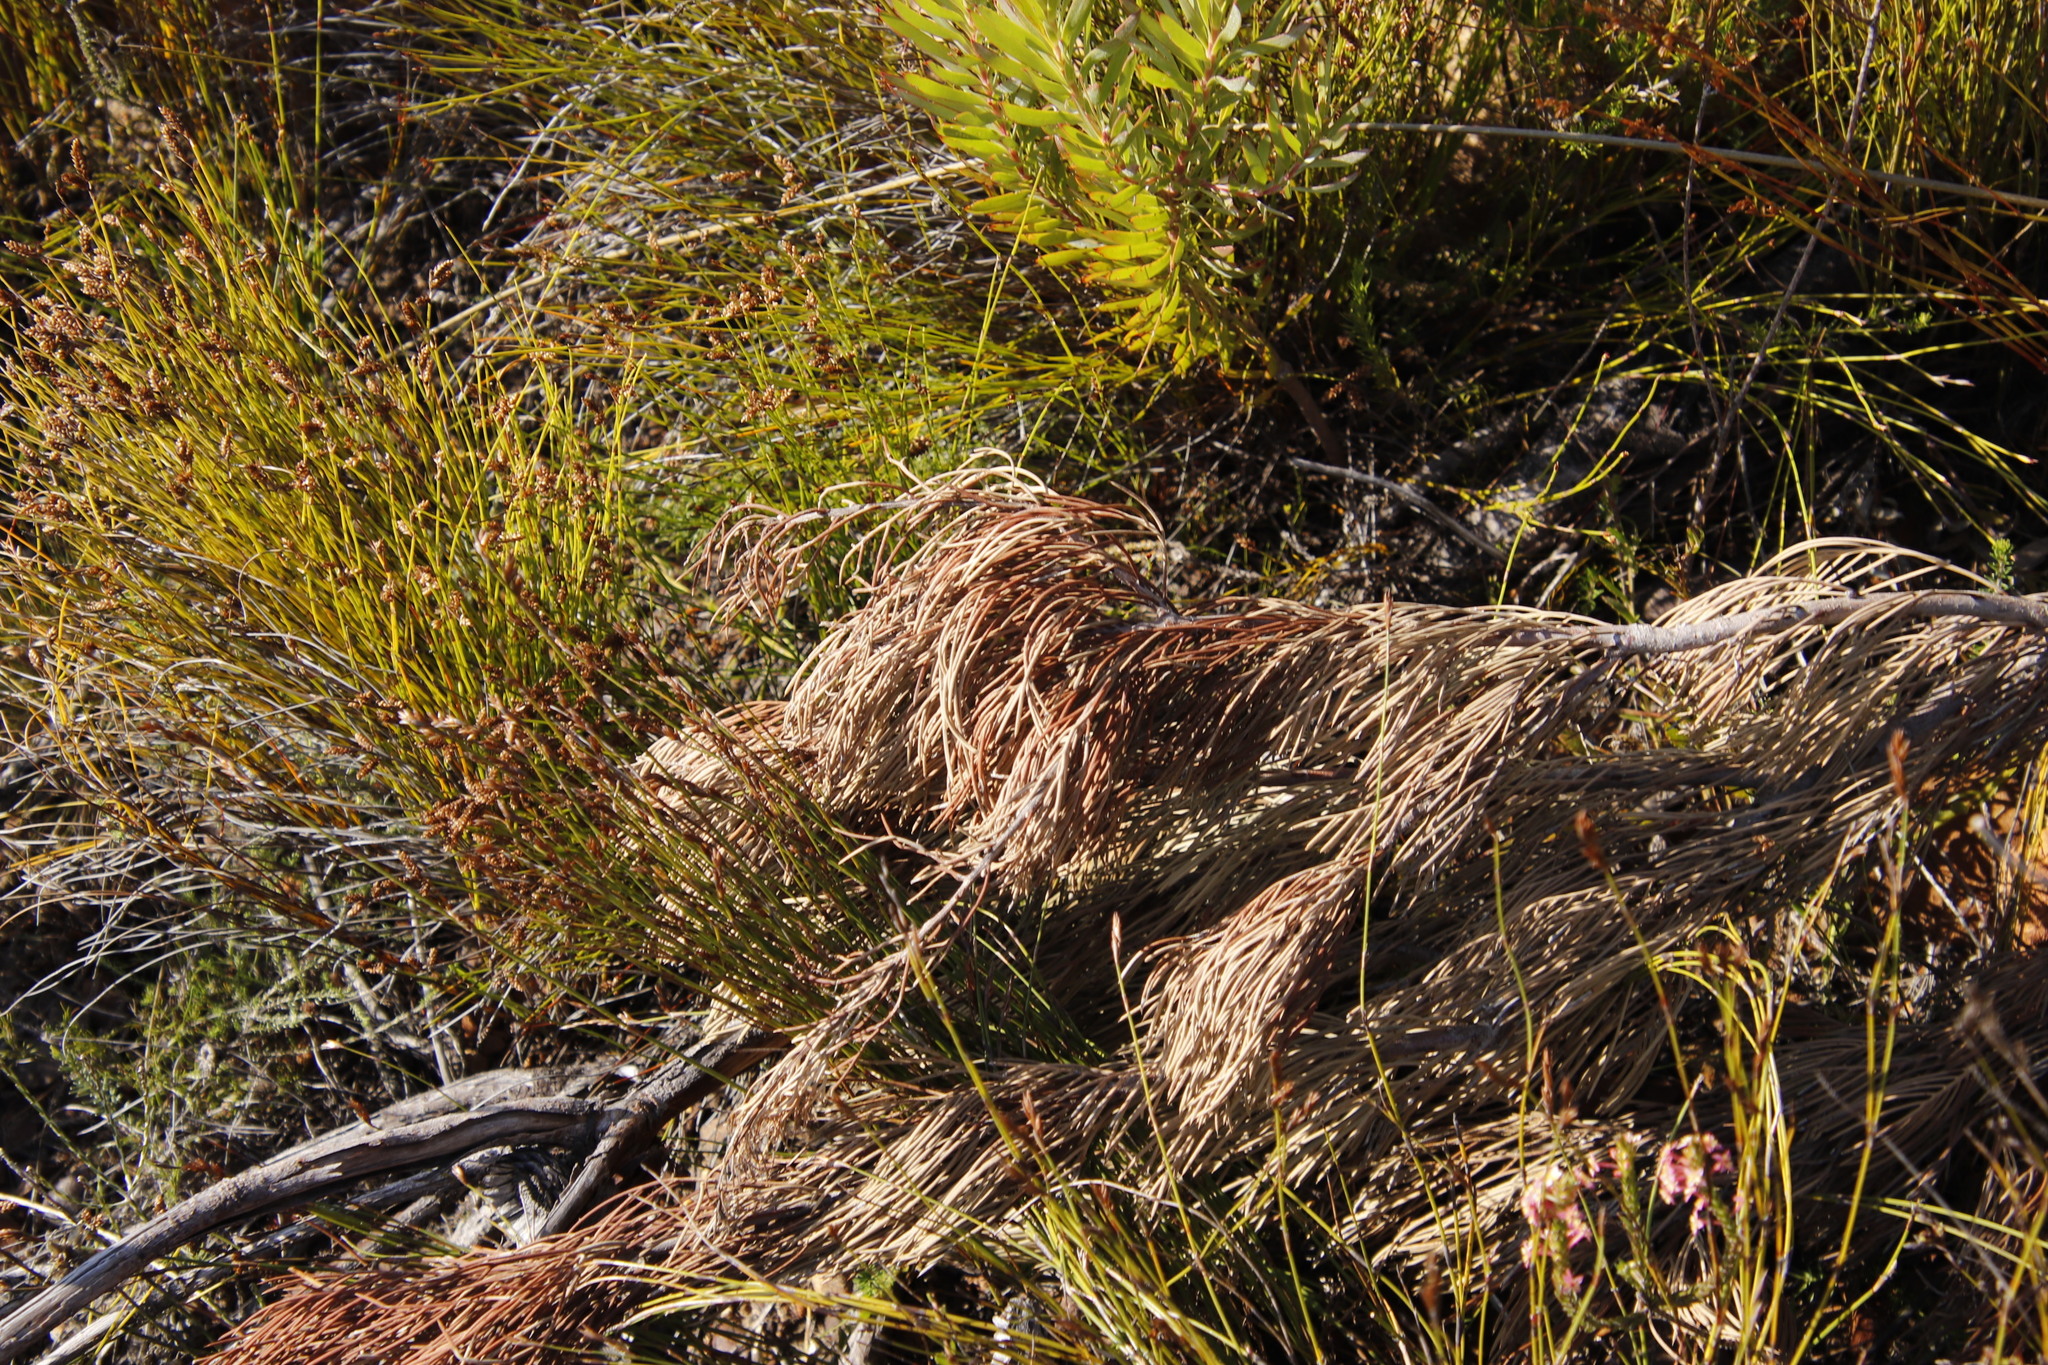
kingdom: Plantae
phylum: Tracheophyta
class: Magnoliopsida
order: Proteales
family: Proteaceae
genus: Hakea
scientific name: Hakea drupacea
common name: Sweet hakea
